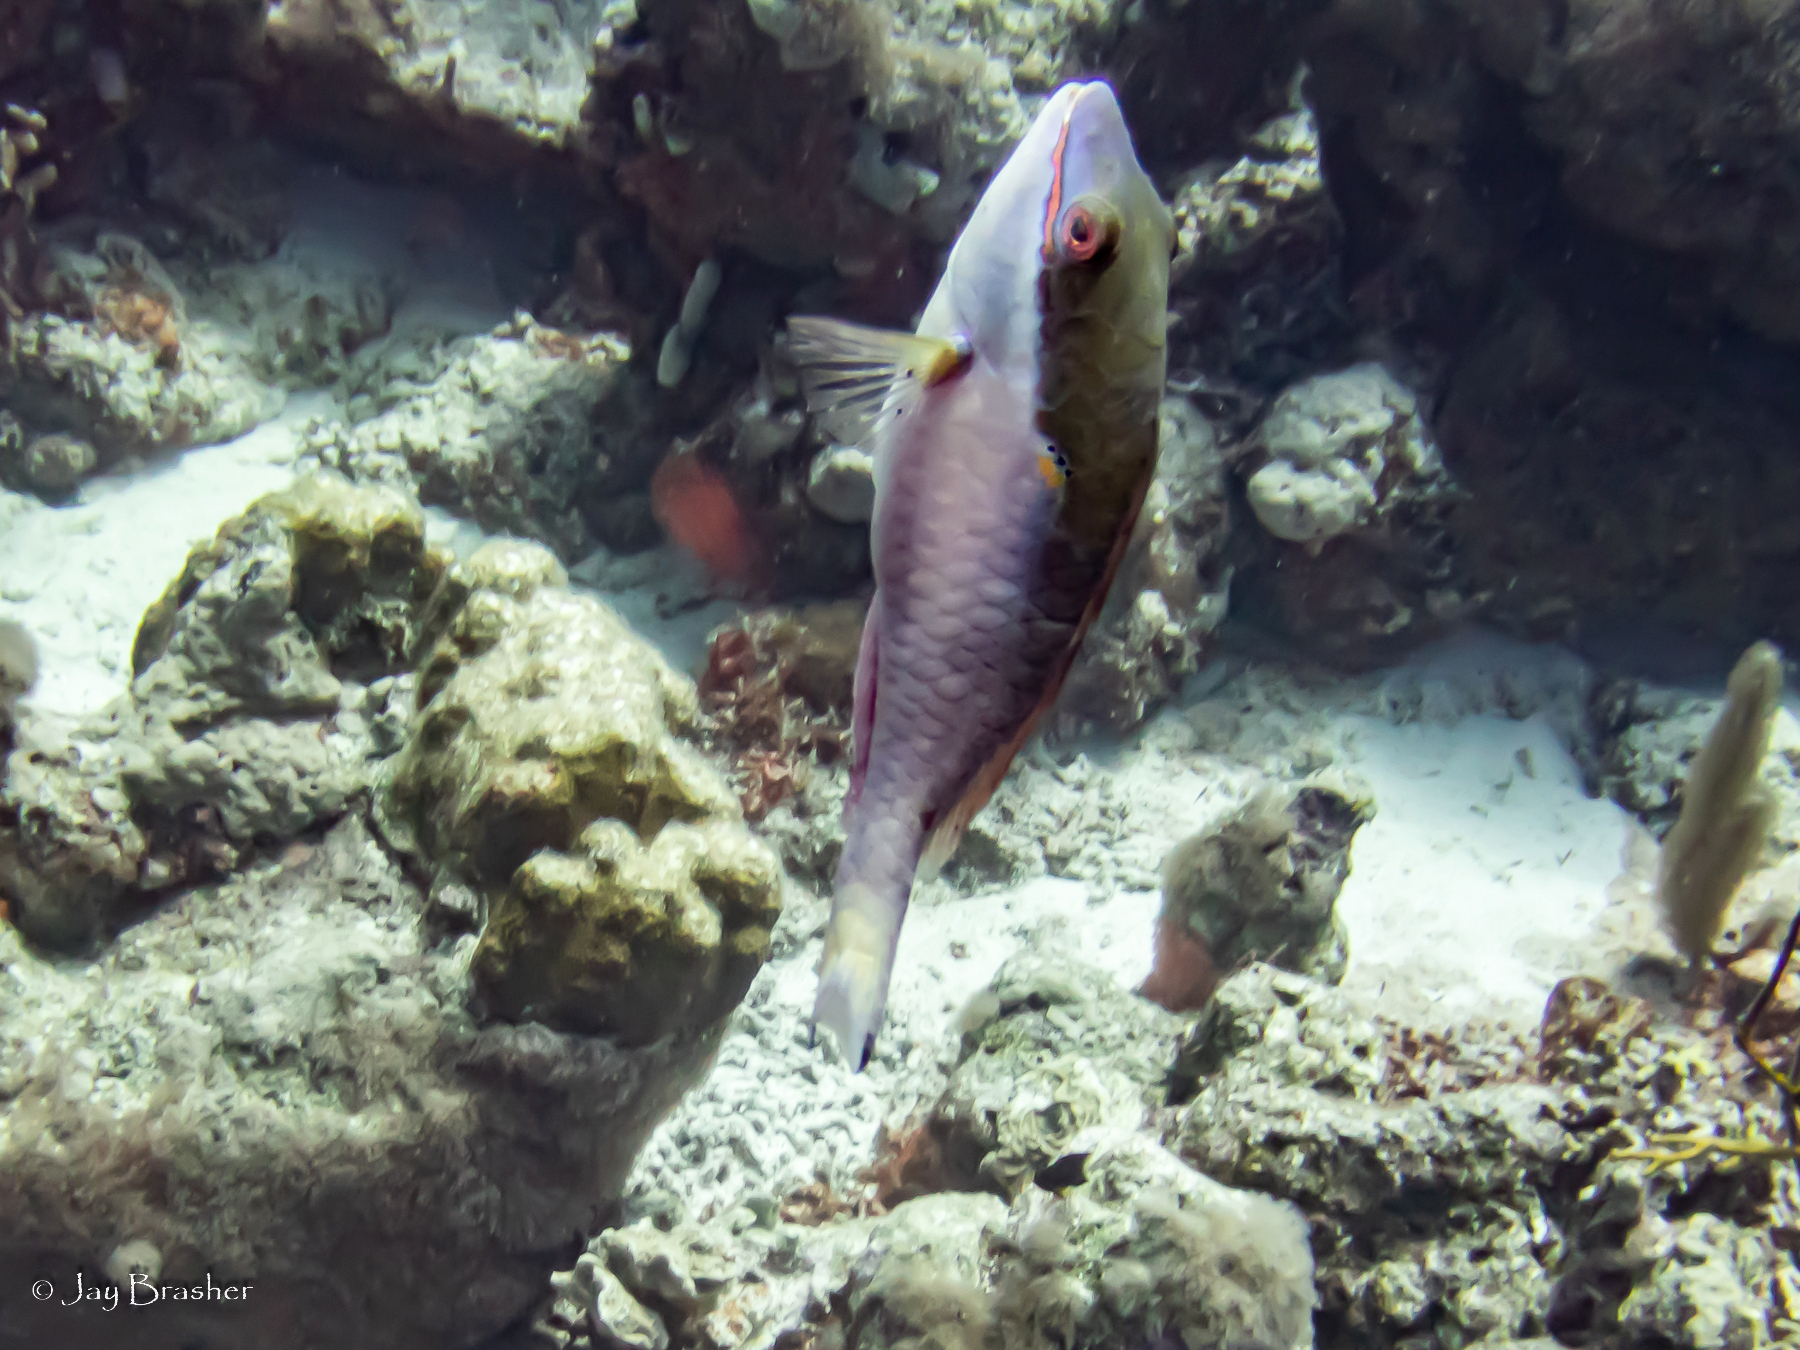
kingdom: Animalia
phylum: Chordata
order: Perciformes
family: Scaridae
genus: Sparisoma
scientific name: Sparisoma aurofrenatum
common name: Redband parrotfish
